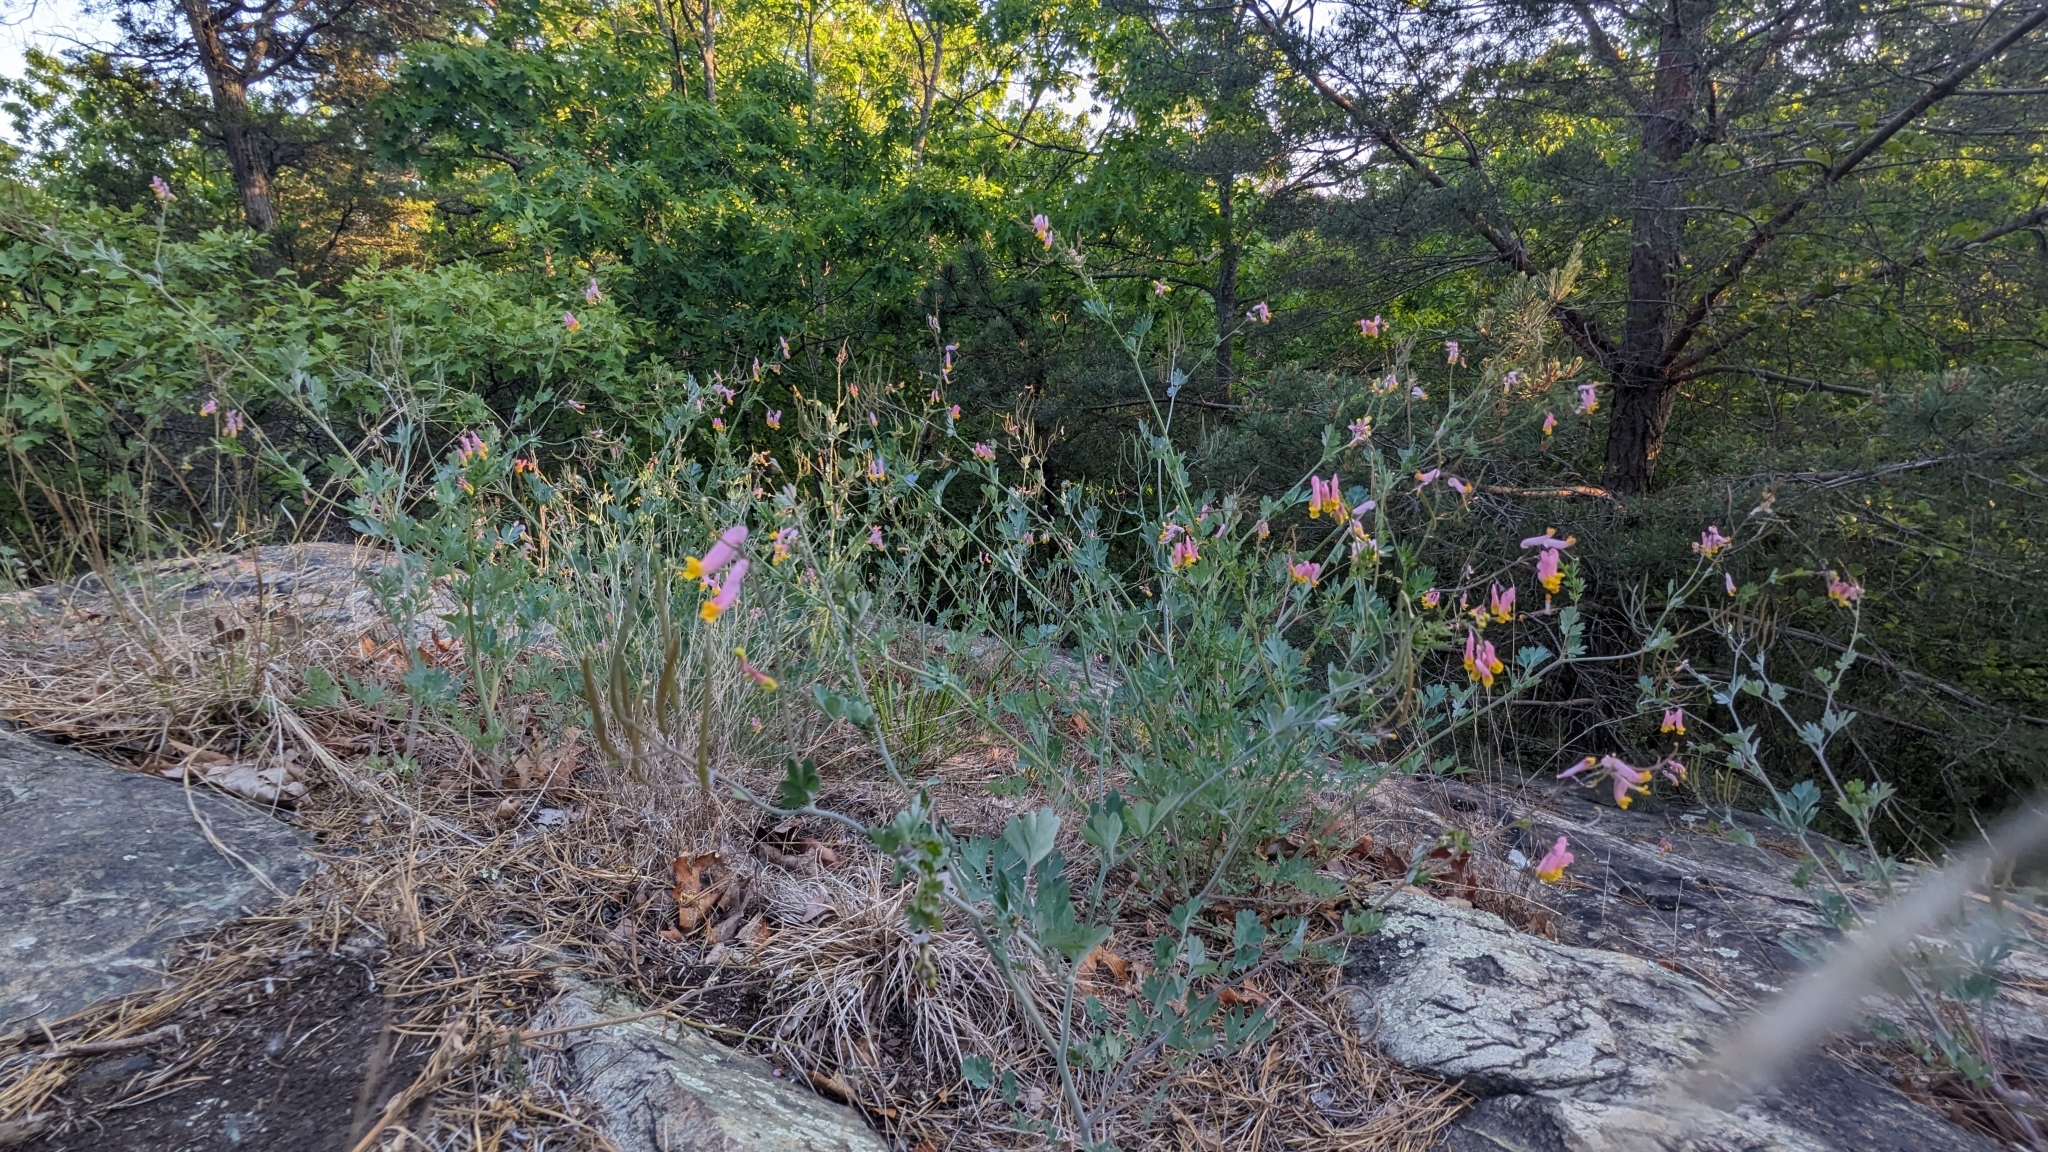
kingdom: Plantae
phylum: Tracheophyta
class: Magnoliopsida
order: Ranunculales
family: Papaveraceae
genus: Capnoides
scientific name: Capnoides sempervirens
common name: Rock harlequin
